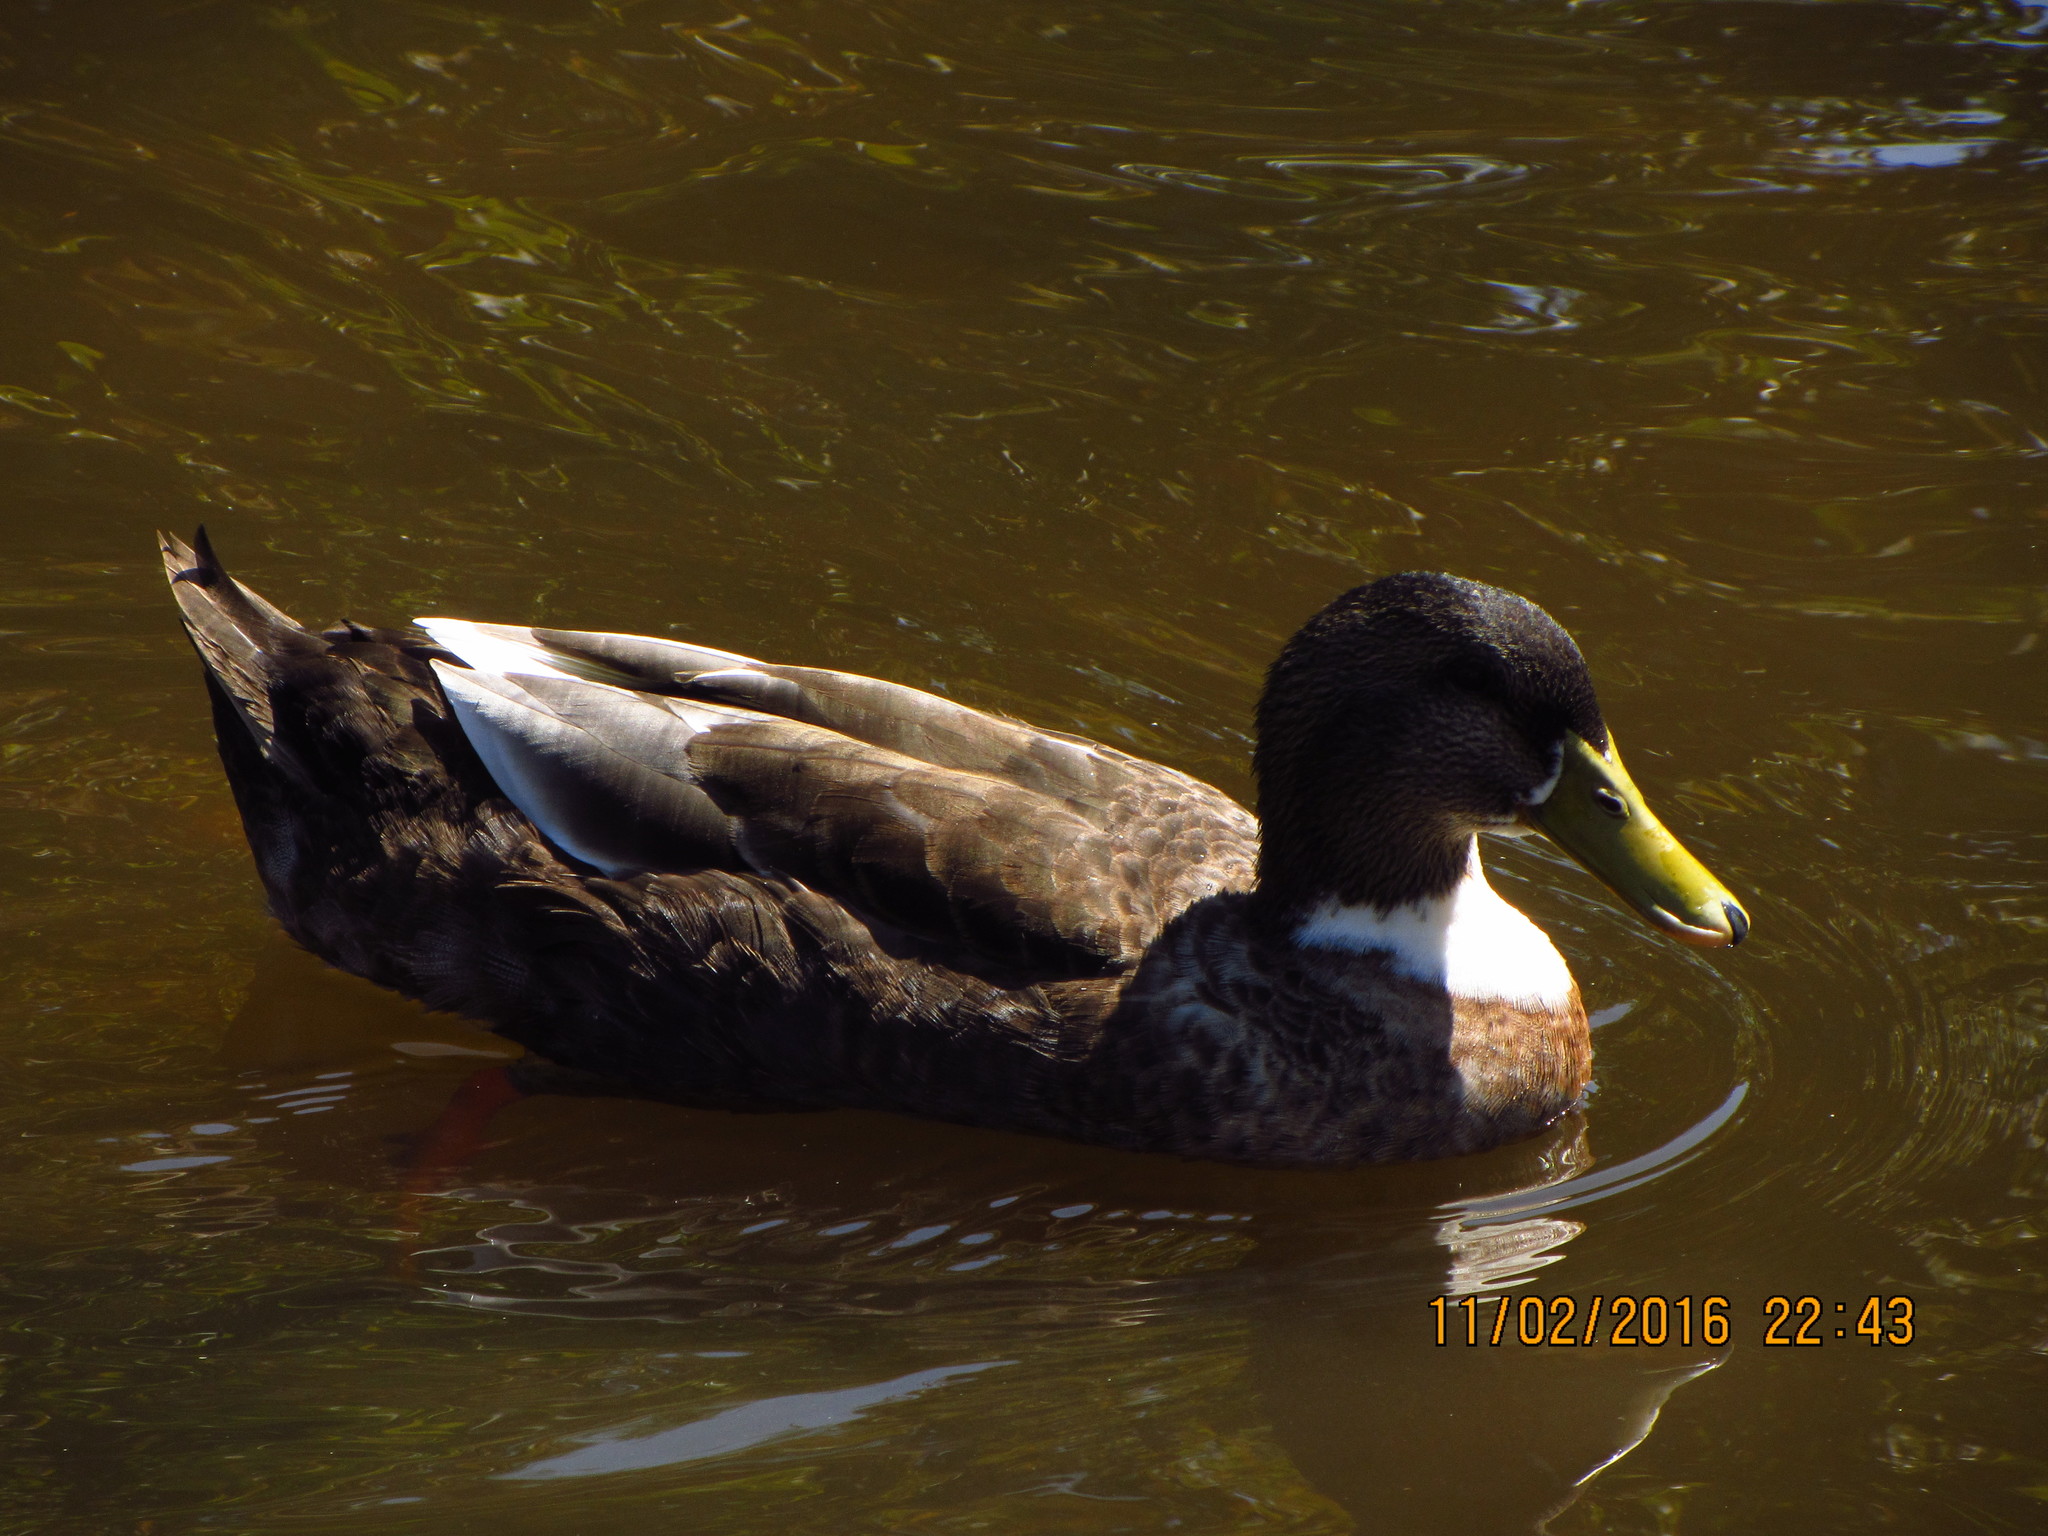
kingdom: Animalia
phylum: Chordata
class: Aves
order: Anseriformes
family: Anatidae
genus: Anas
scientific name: Anas platyrhynchos
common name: Mallard
